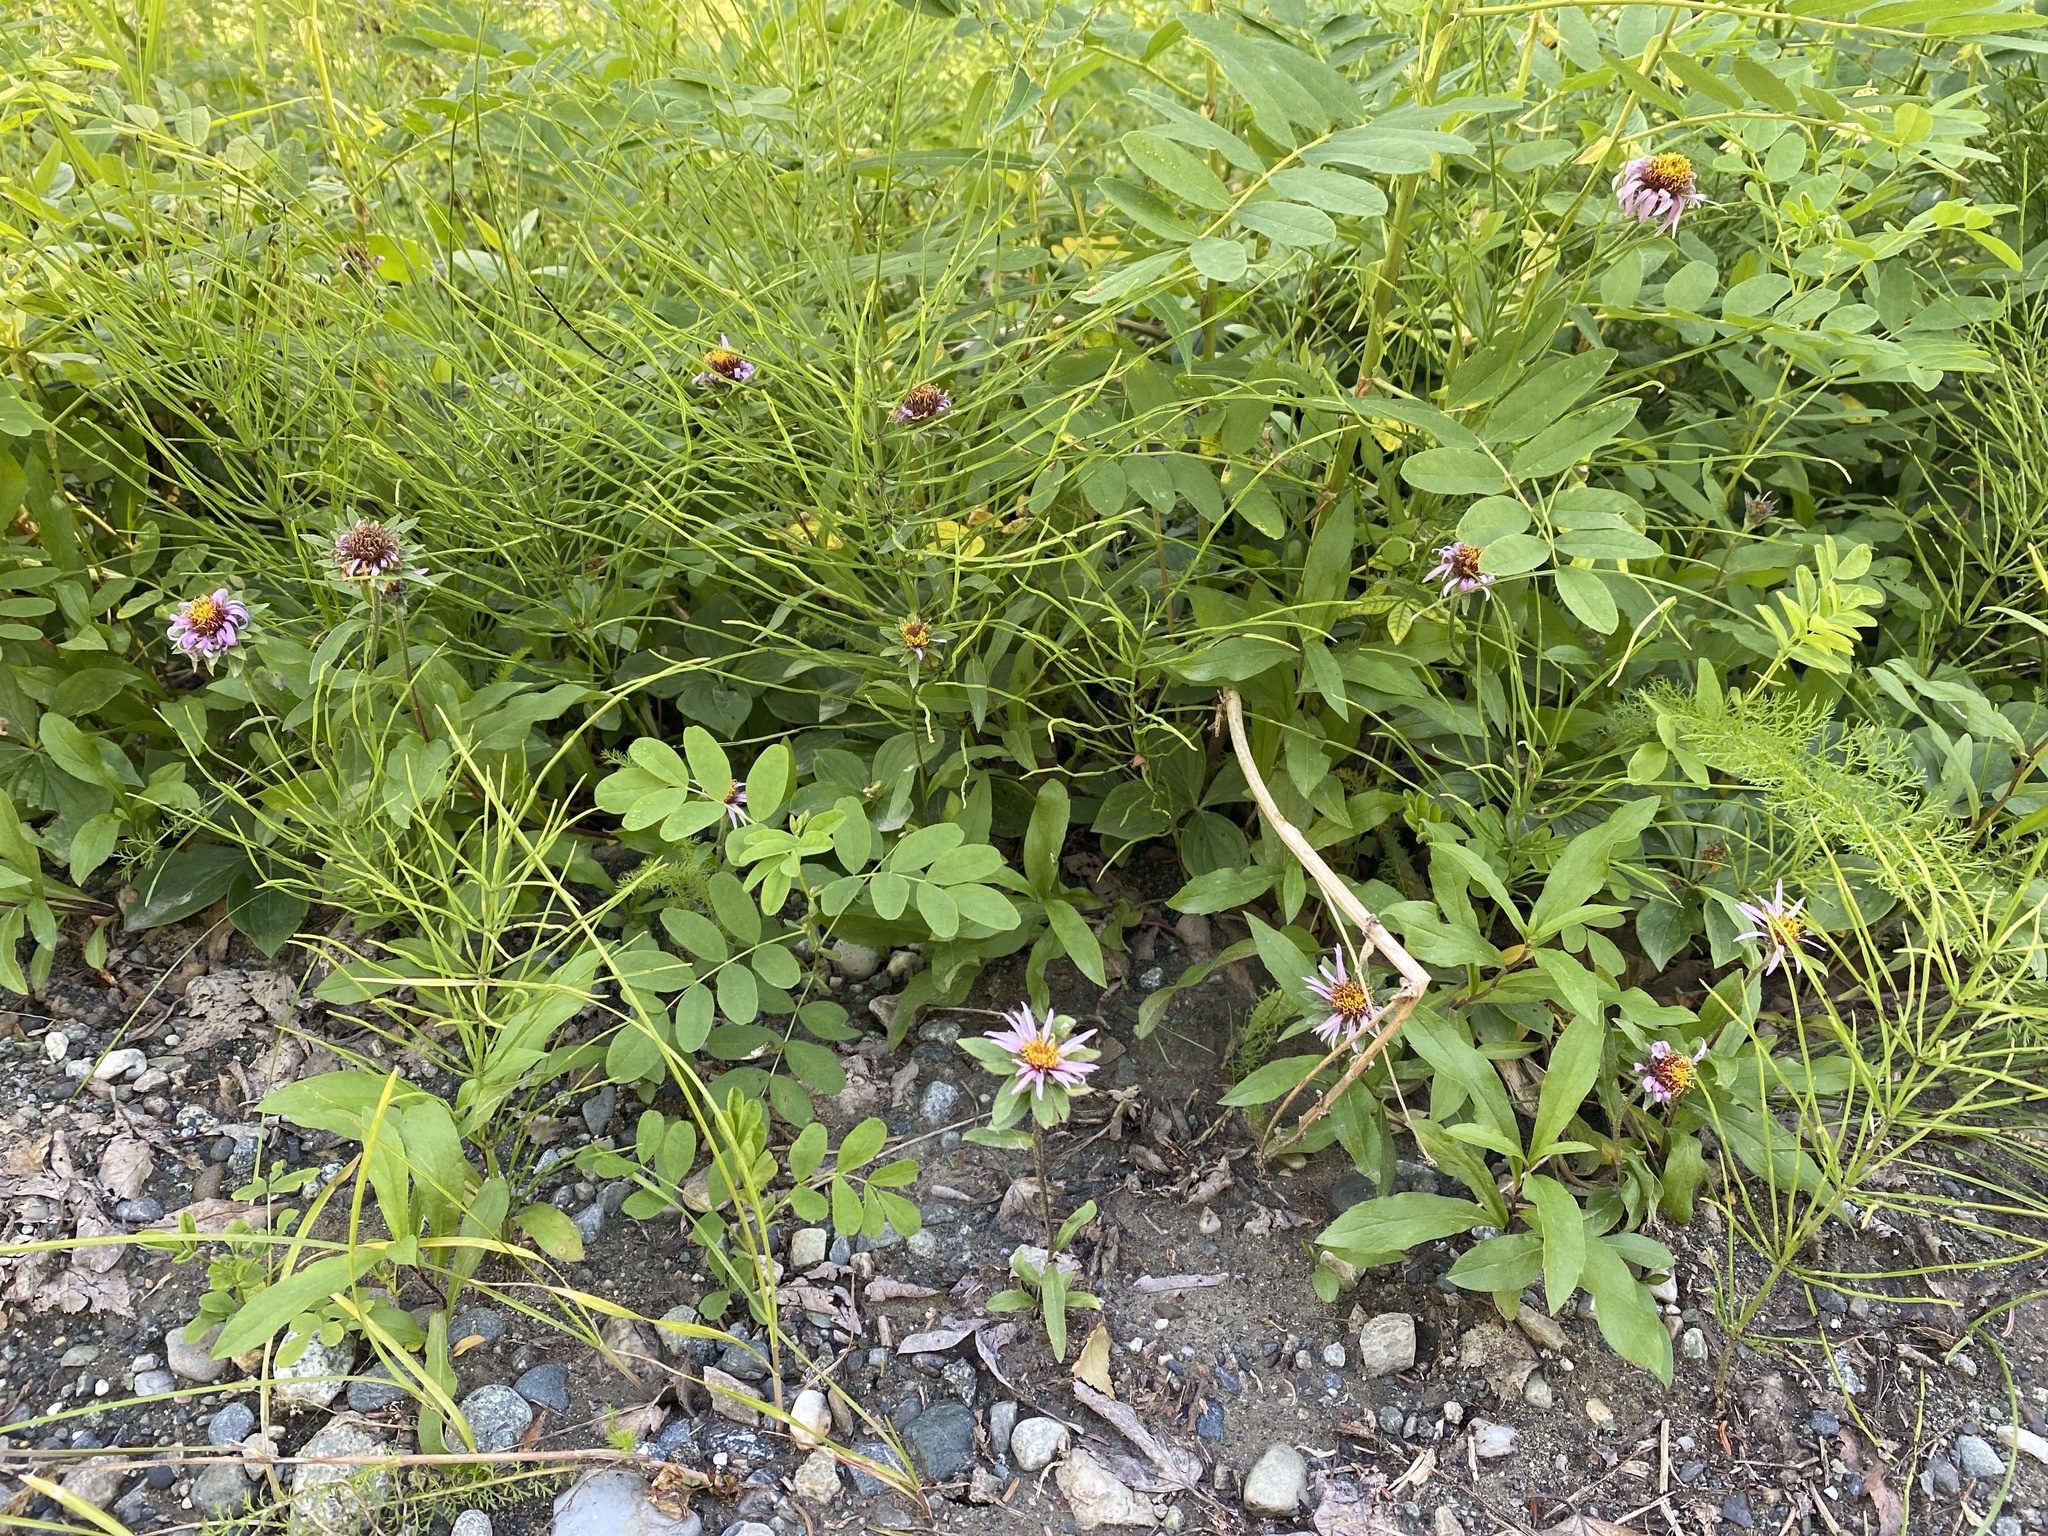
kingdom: Plantae
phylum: Tracheophyta
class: Magnoliopsida
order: Asterales
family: Asteraceae
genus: Eurybia
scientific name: Eurybia sibirica
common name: Arctic aster
